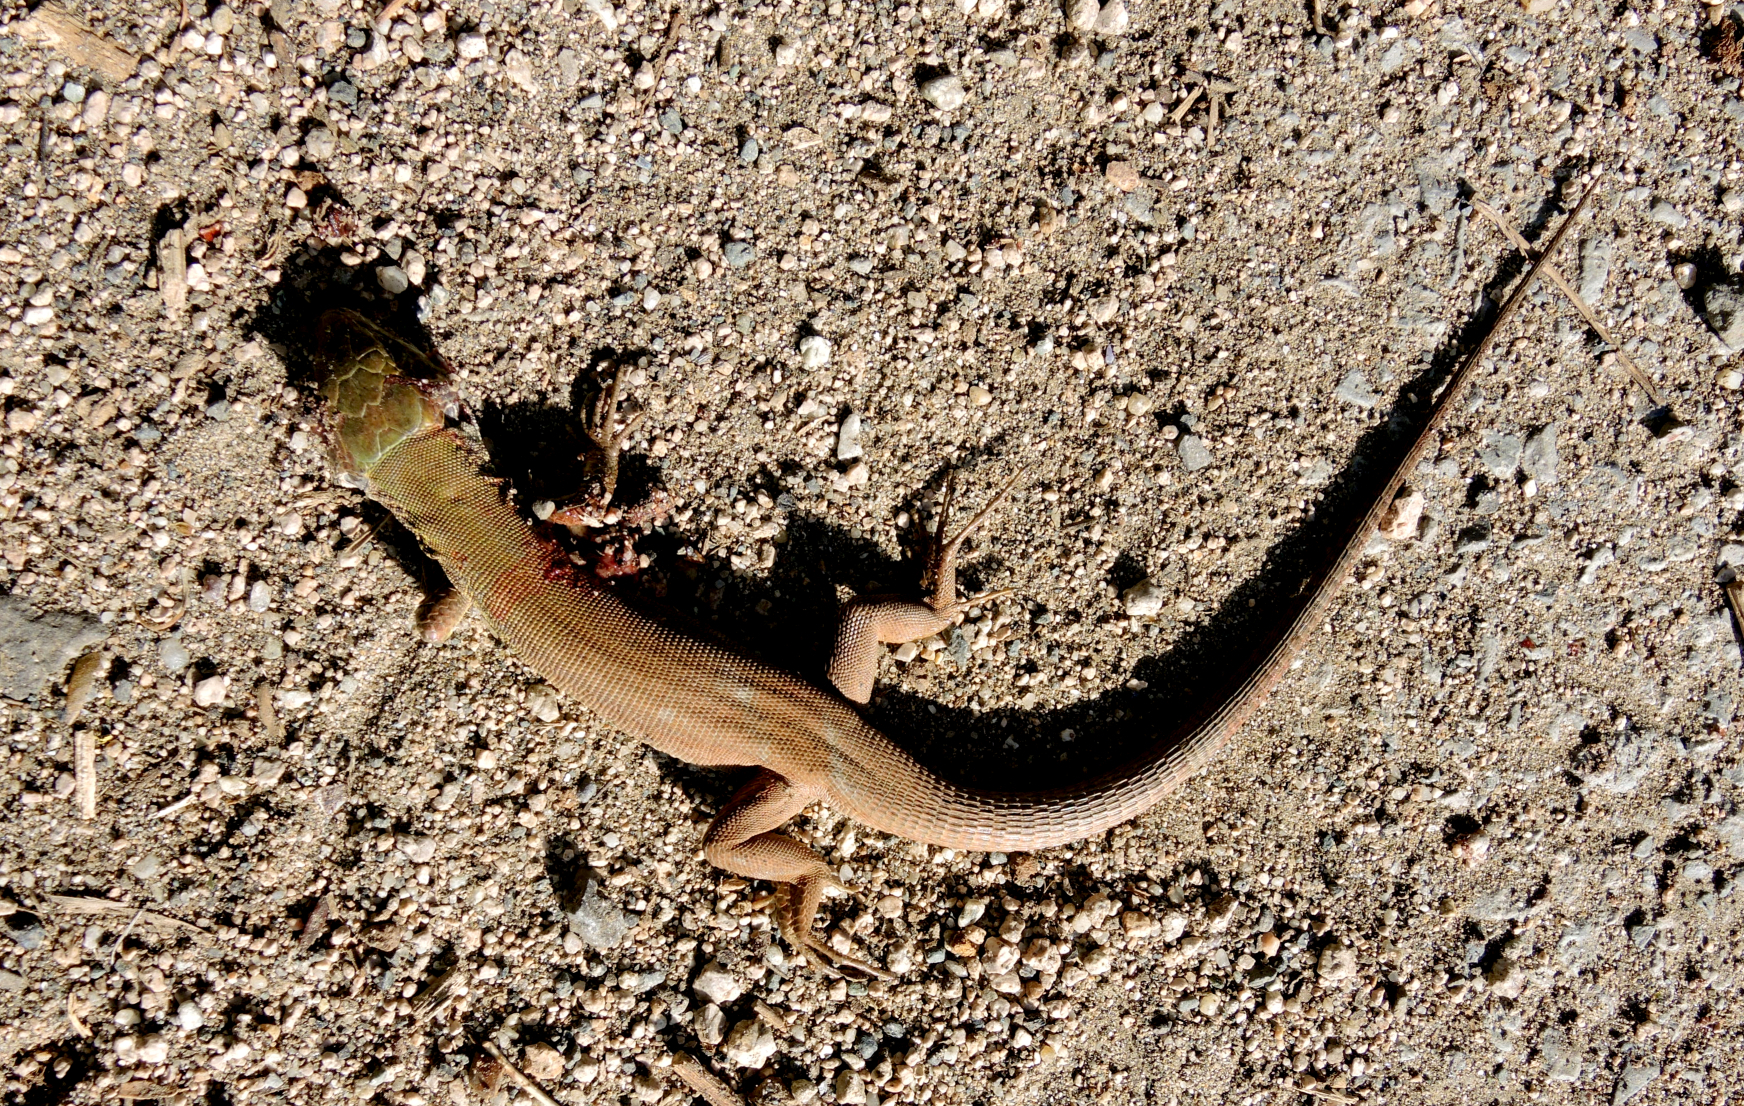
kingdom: Animalia
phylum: Chordata
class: Squamata
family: Lacertidae
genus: Lacerta
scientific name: Lacerta viridis
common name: European green lizard
